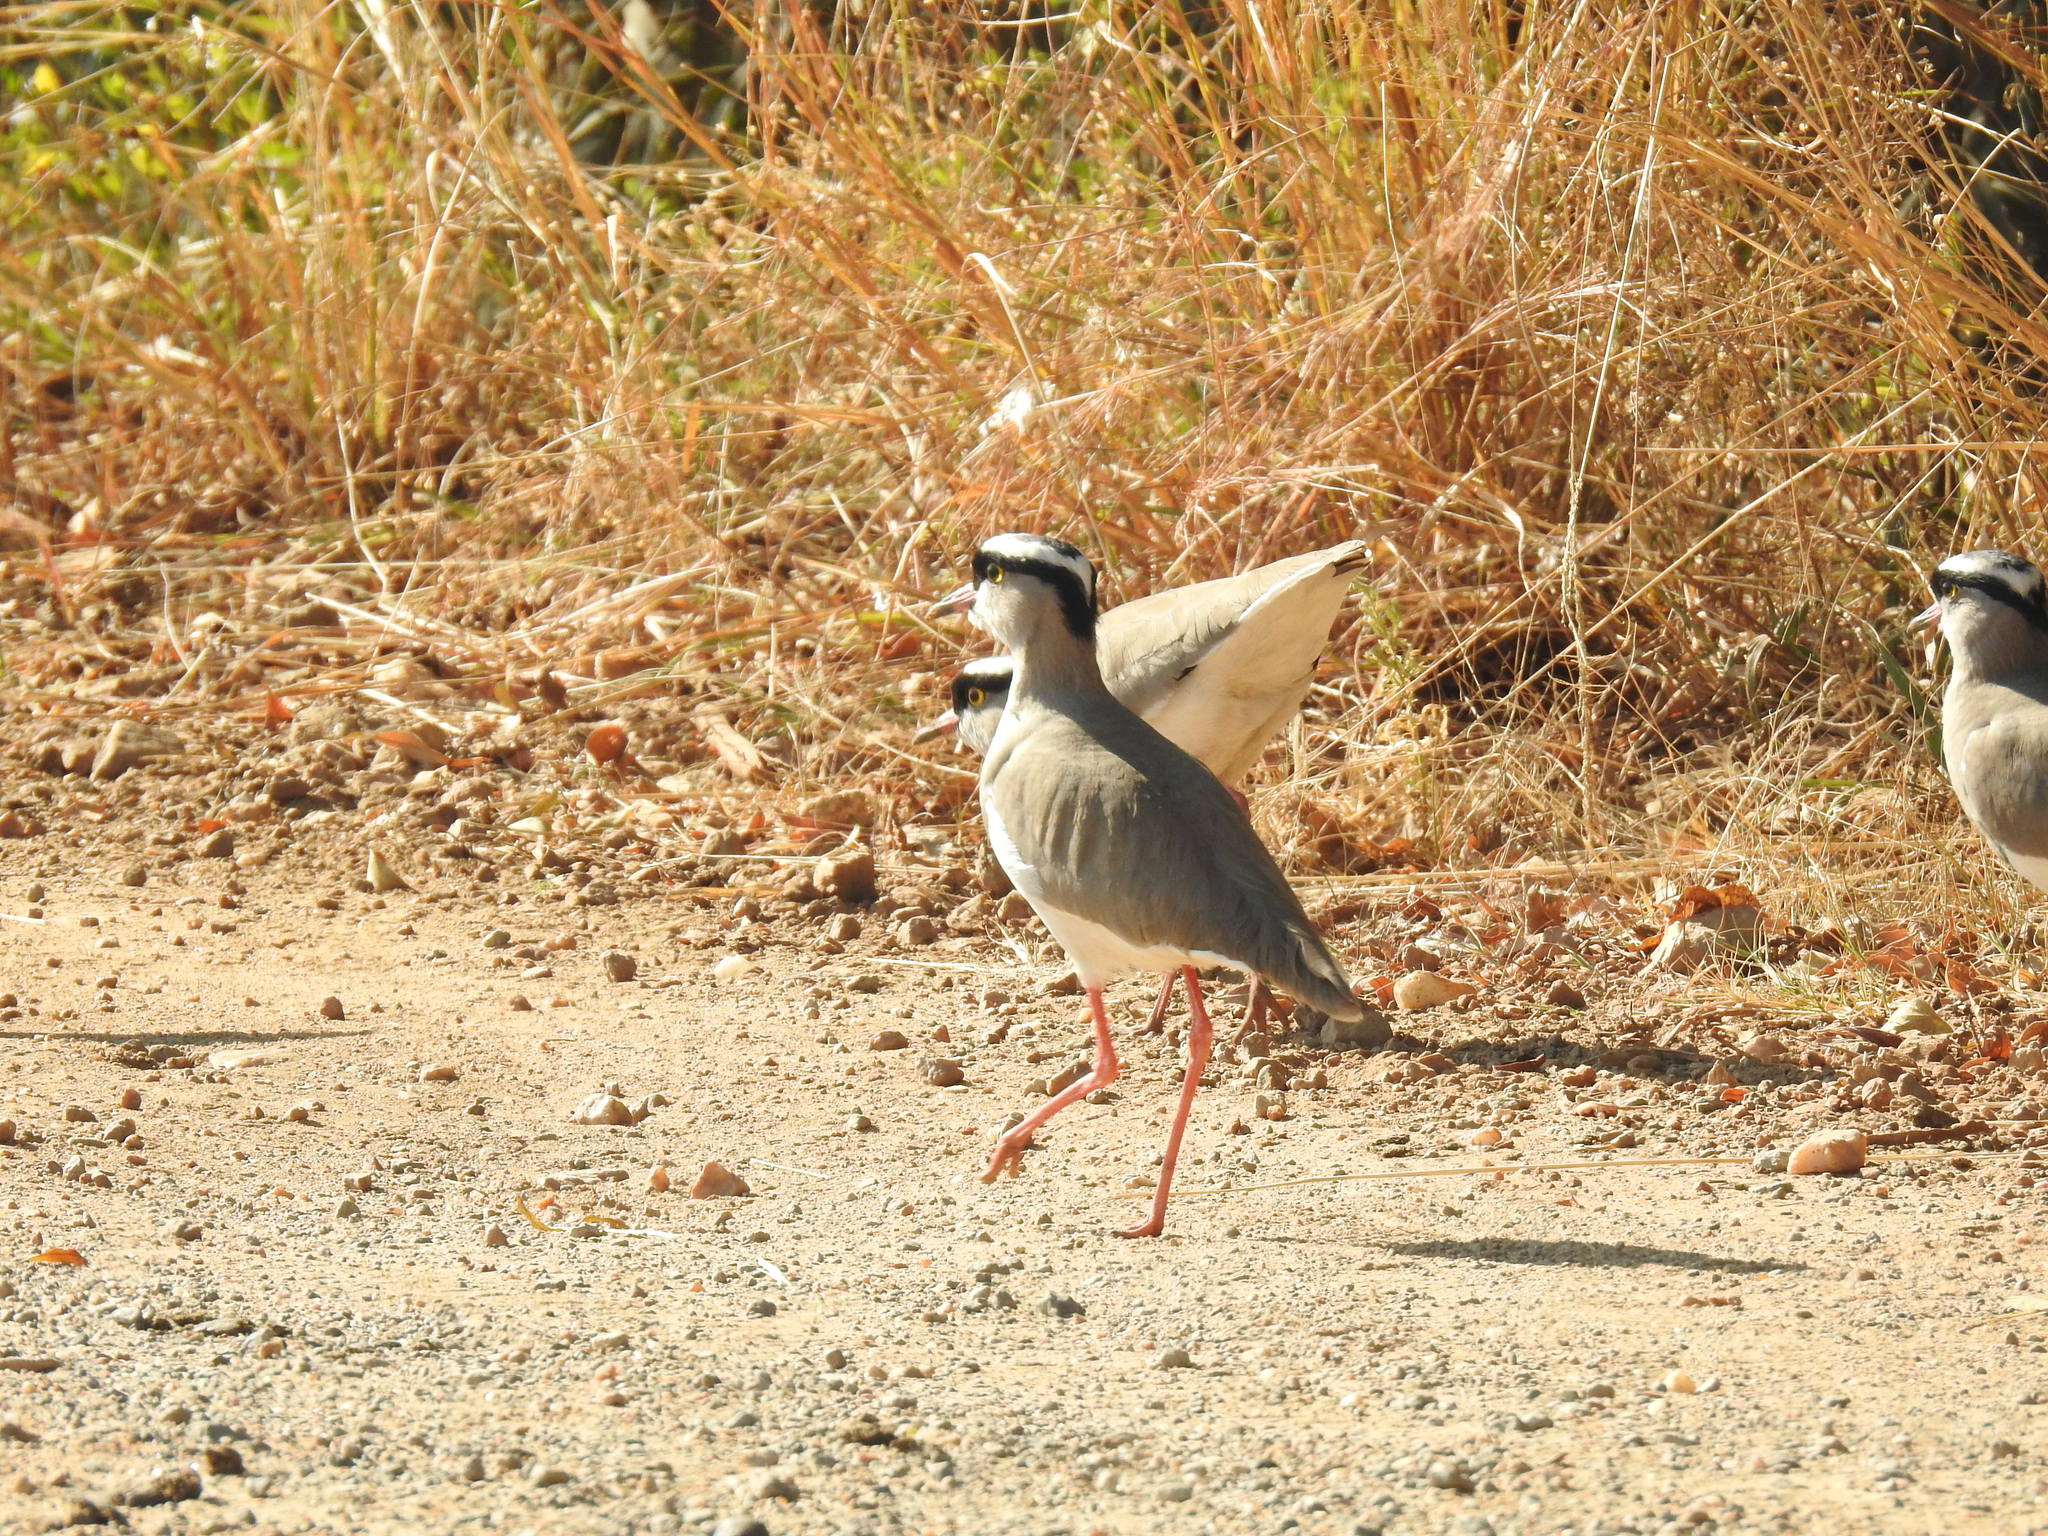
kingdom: Animalia
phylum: Chordata
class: Aves
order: Charadriiformes
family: Charadriidae
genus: Vanellus
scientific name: Vanellus coronatus
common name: Crowned lapwing
